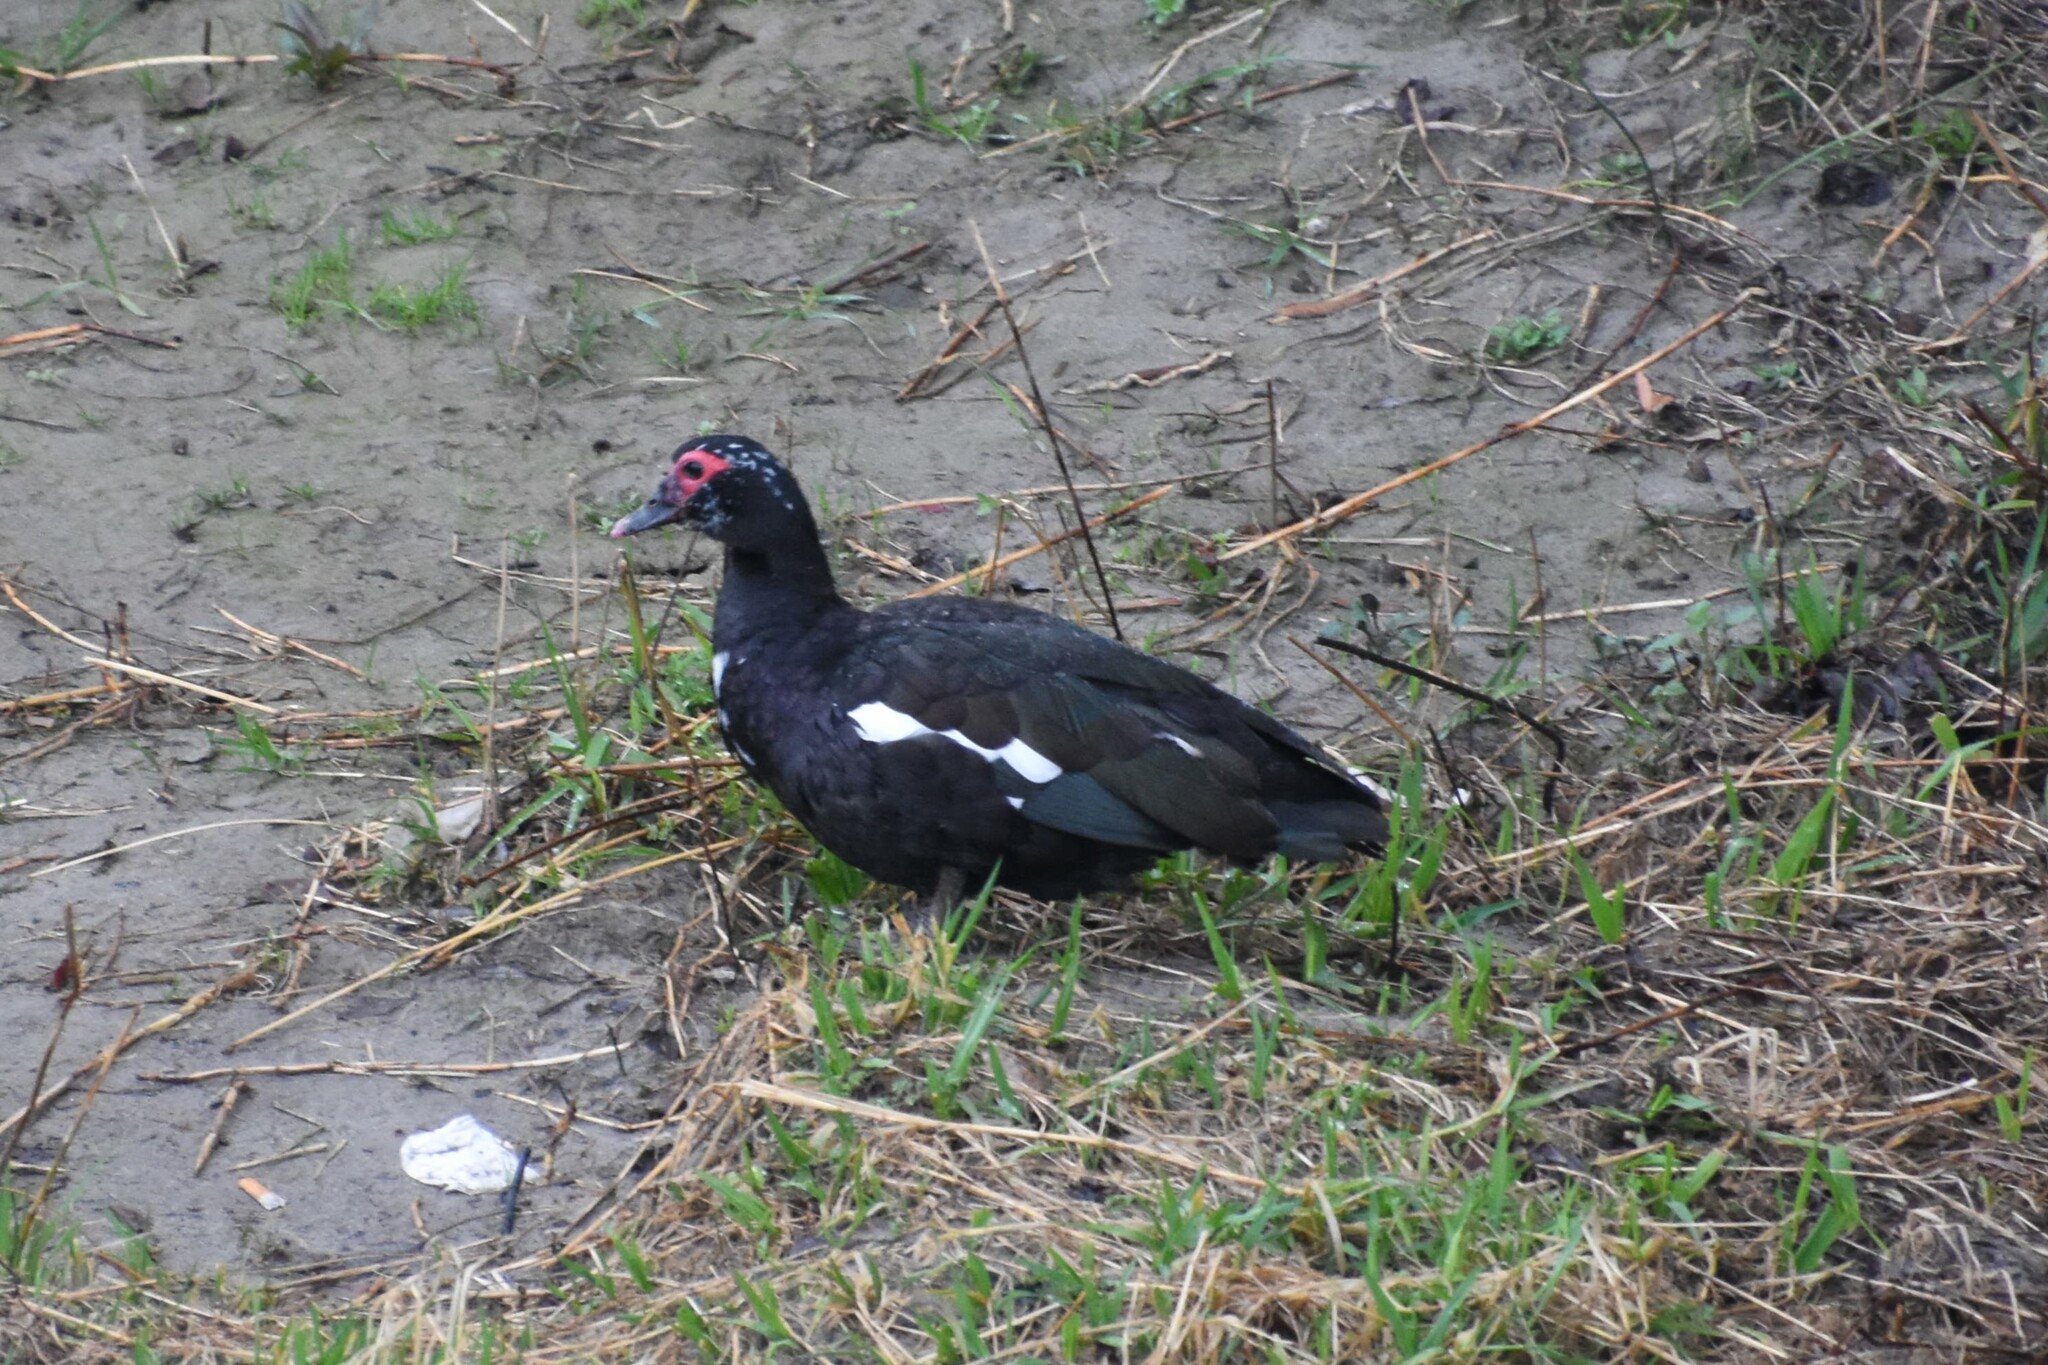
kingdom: Animalia
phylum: Chordata
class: Aves
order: Anseriformes
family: Anatidae
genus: Cairina
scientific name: Cairina moschata
